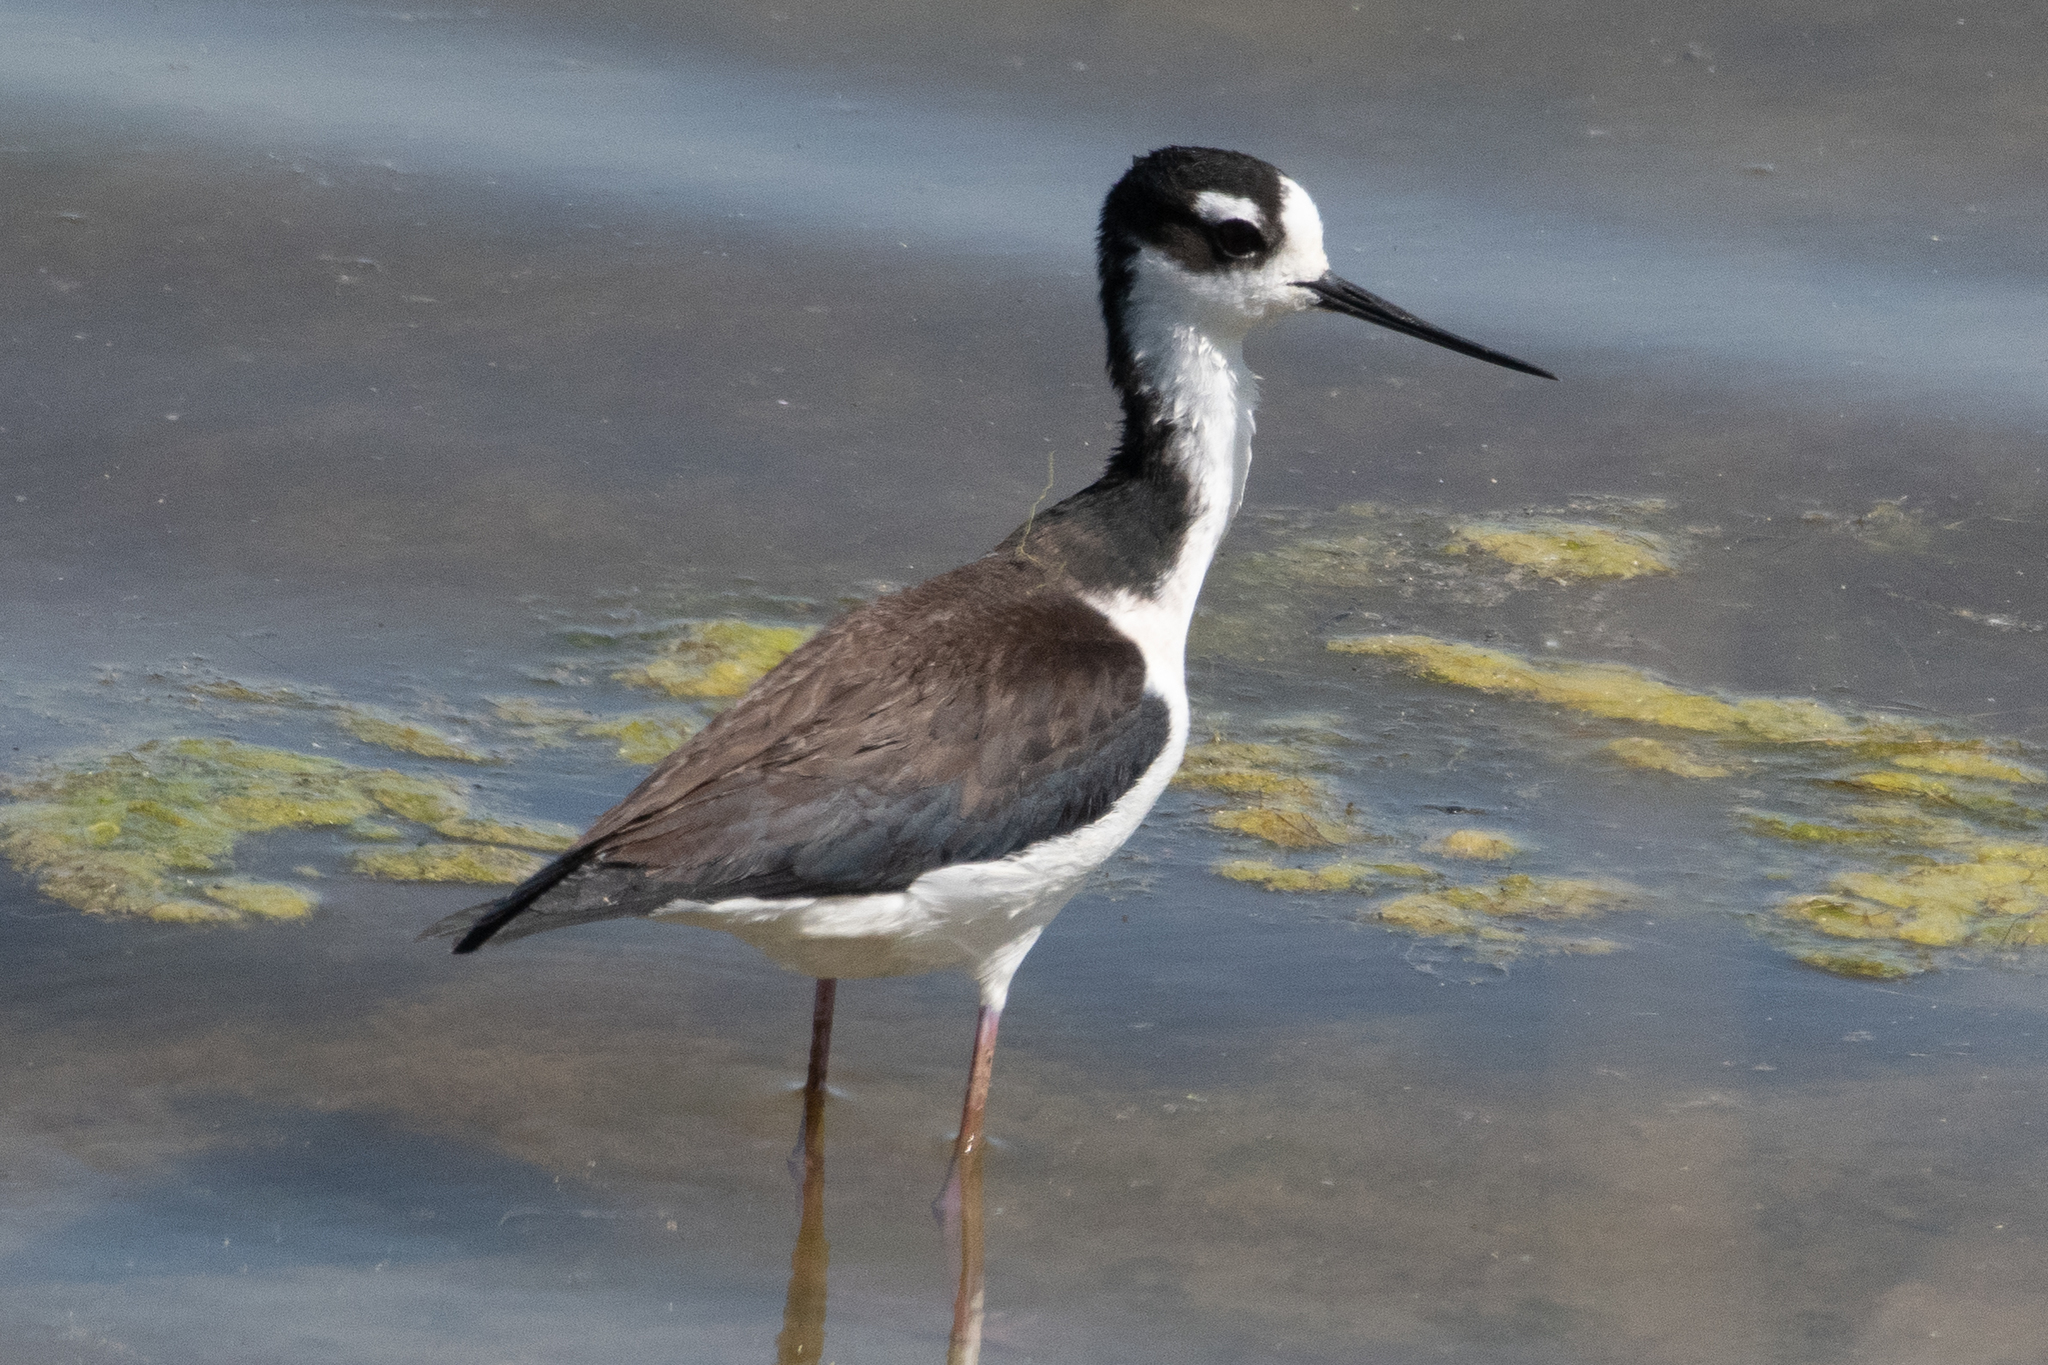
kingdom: Animalia
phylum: Chordata
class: Aves
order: Charadriiformes
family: Recurvirostridae
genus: Himantopus
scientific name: Himantopus mexicanus
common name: Black-necked stilt
